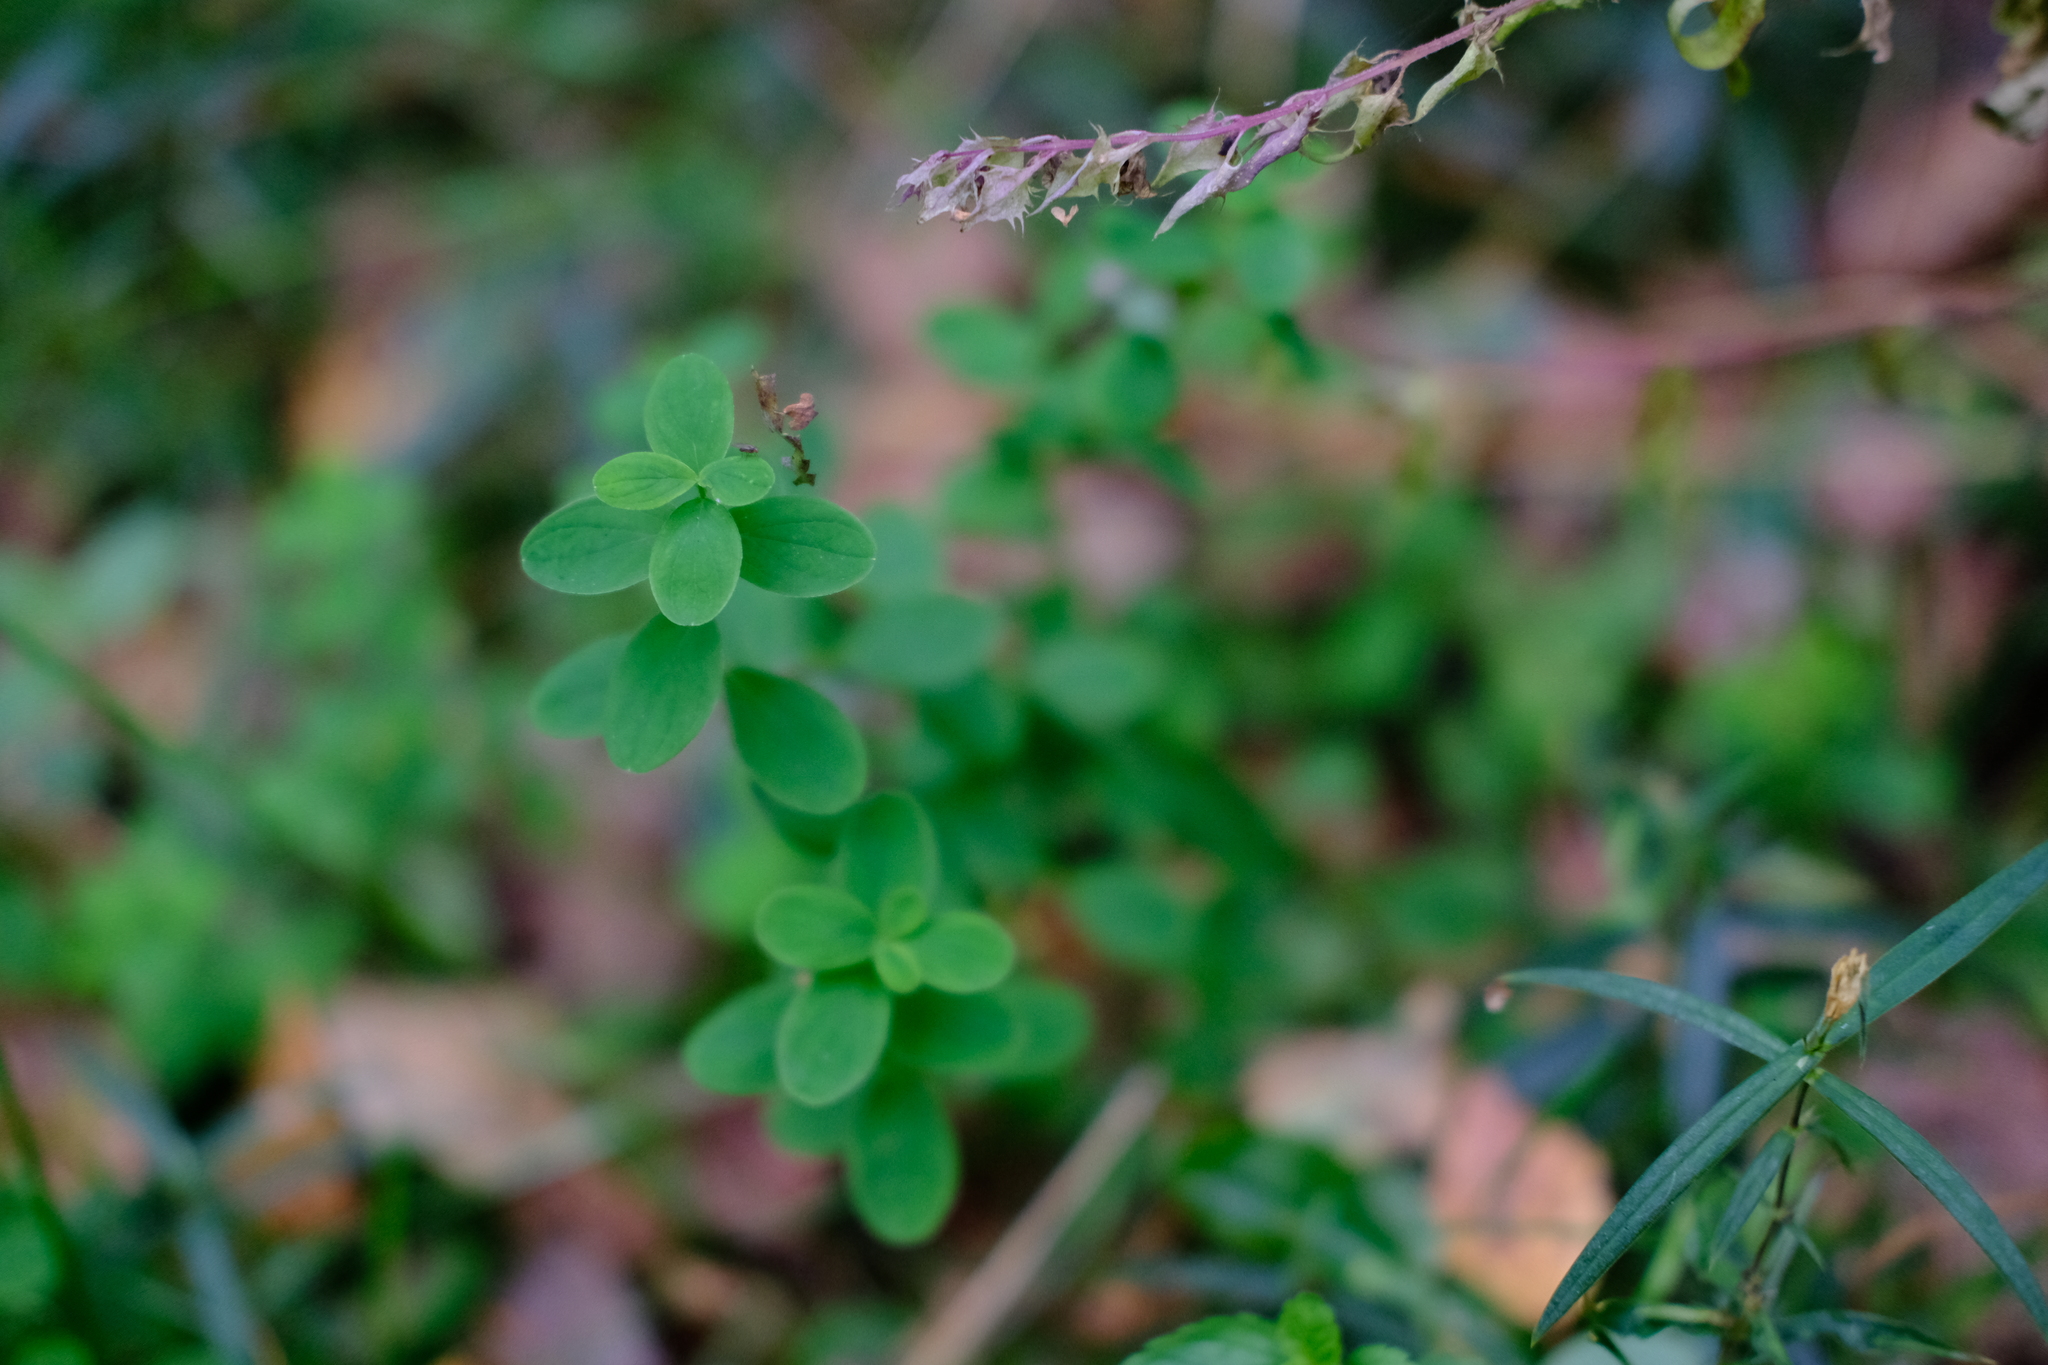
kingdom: Plantae
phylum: Tracheophyta
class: Magnoliopsida
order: Malpighiales
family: Hypericaceae
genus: Hypericum
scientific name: Hypericum maculatum
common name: Imperforate st. john's-wort
